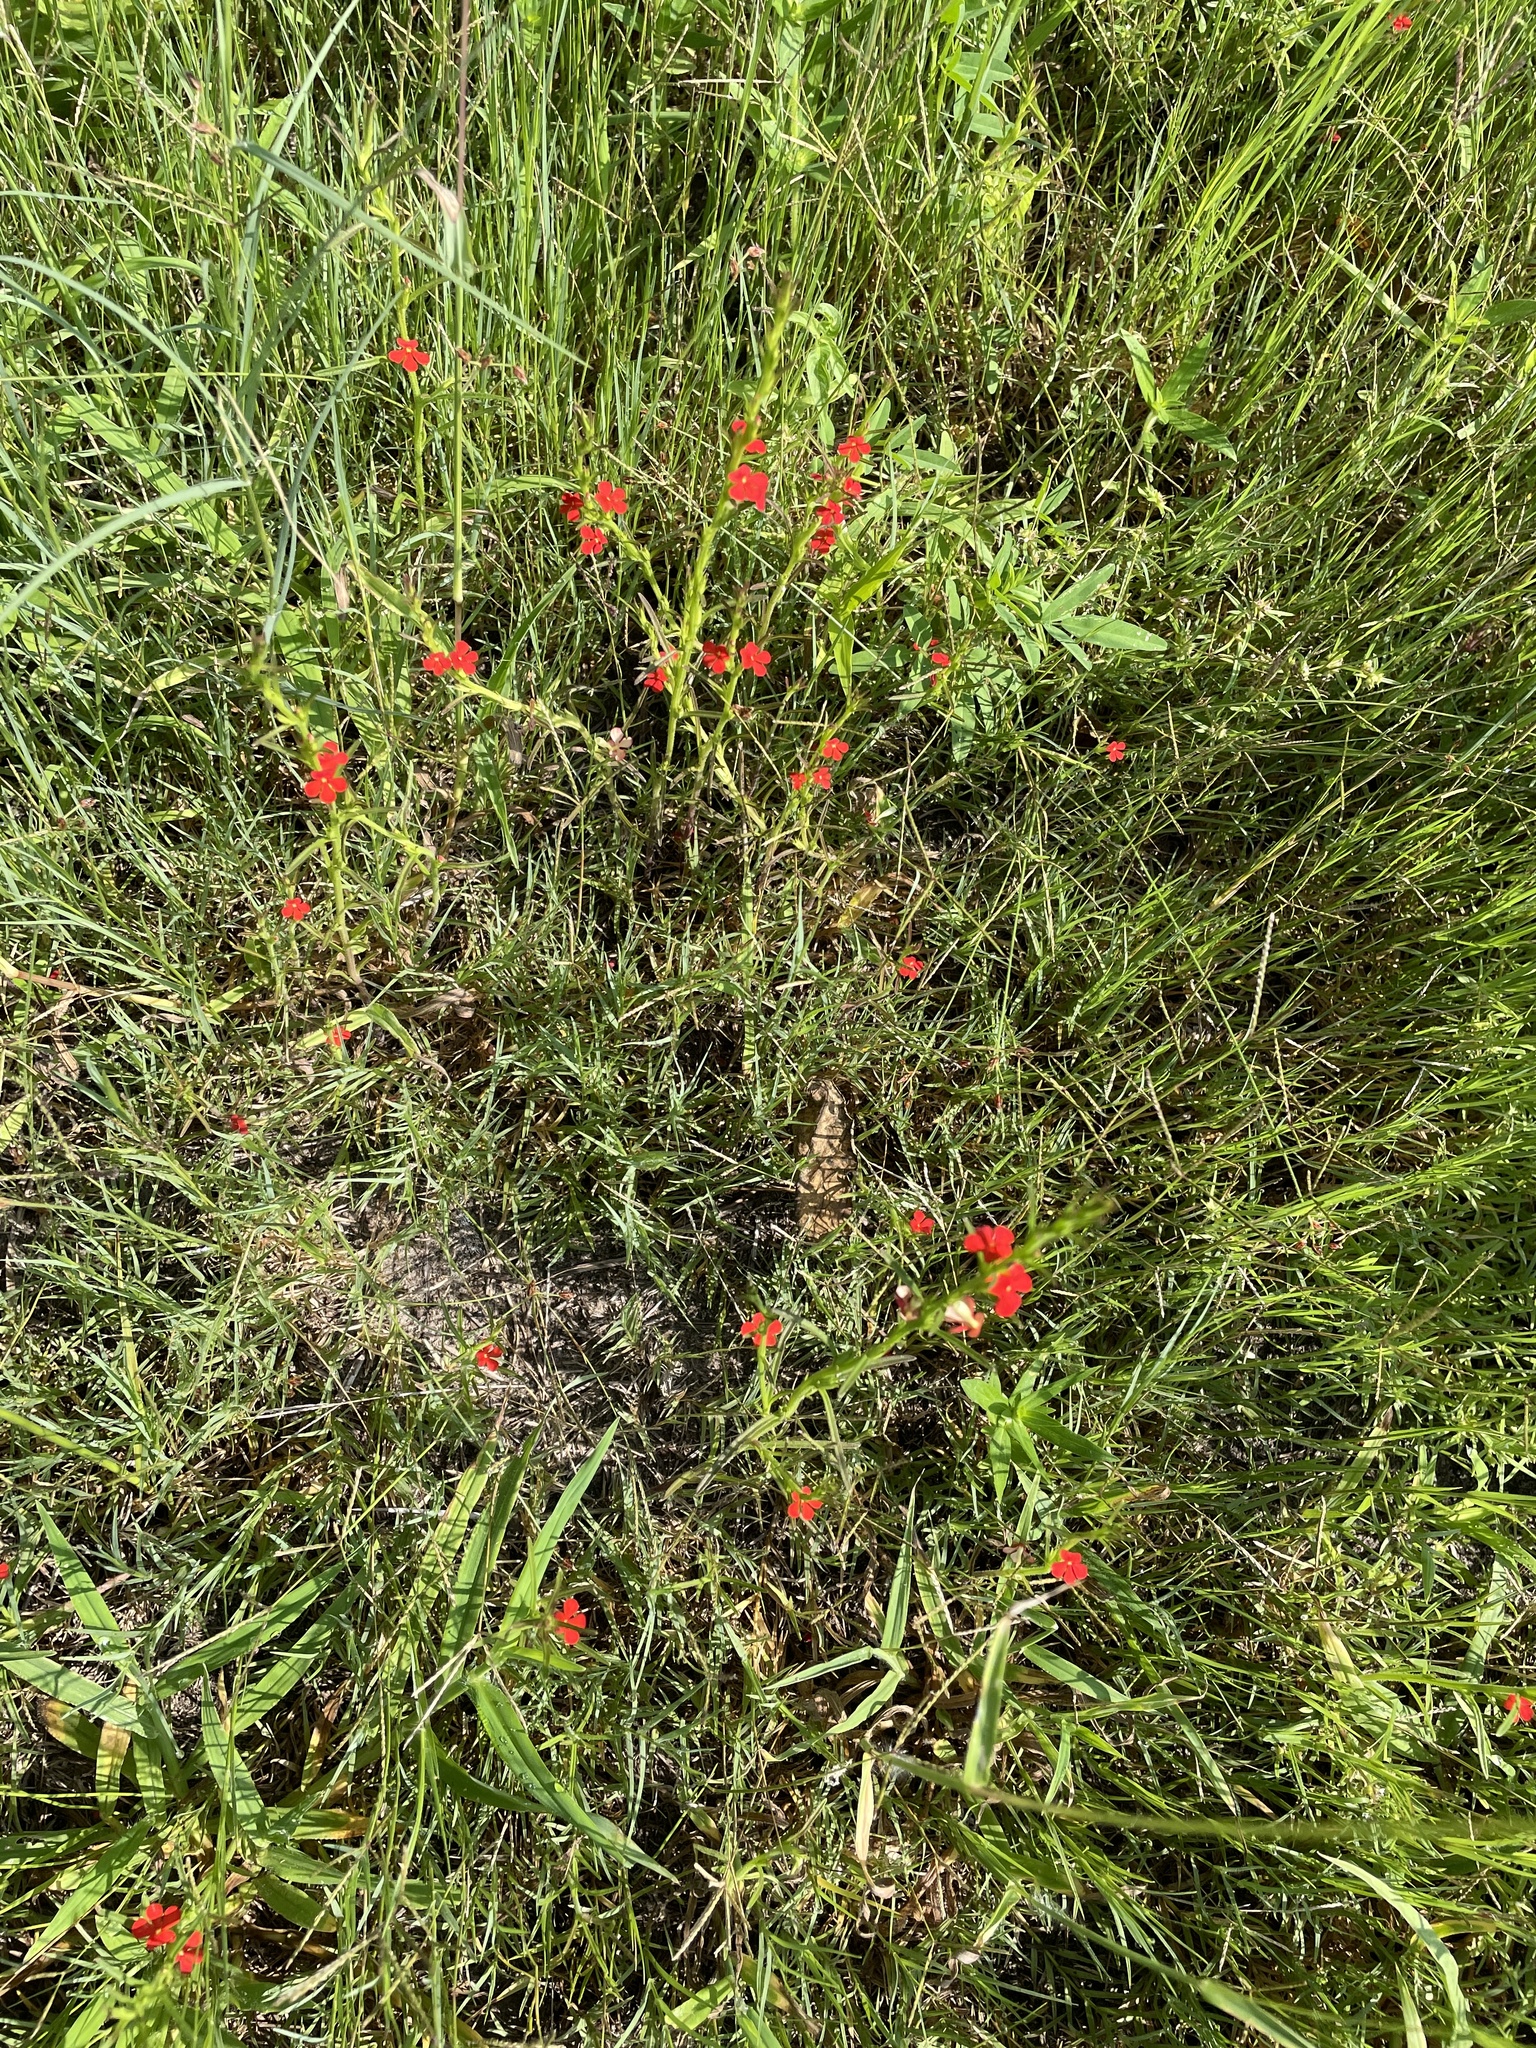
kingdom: Plantae
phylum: Tracheophyta
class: Magnoliopsida
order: Lamiales
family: Orobanchaceae
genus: Striga
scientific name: Striga asiatica
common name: Asiatic witchweed
